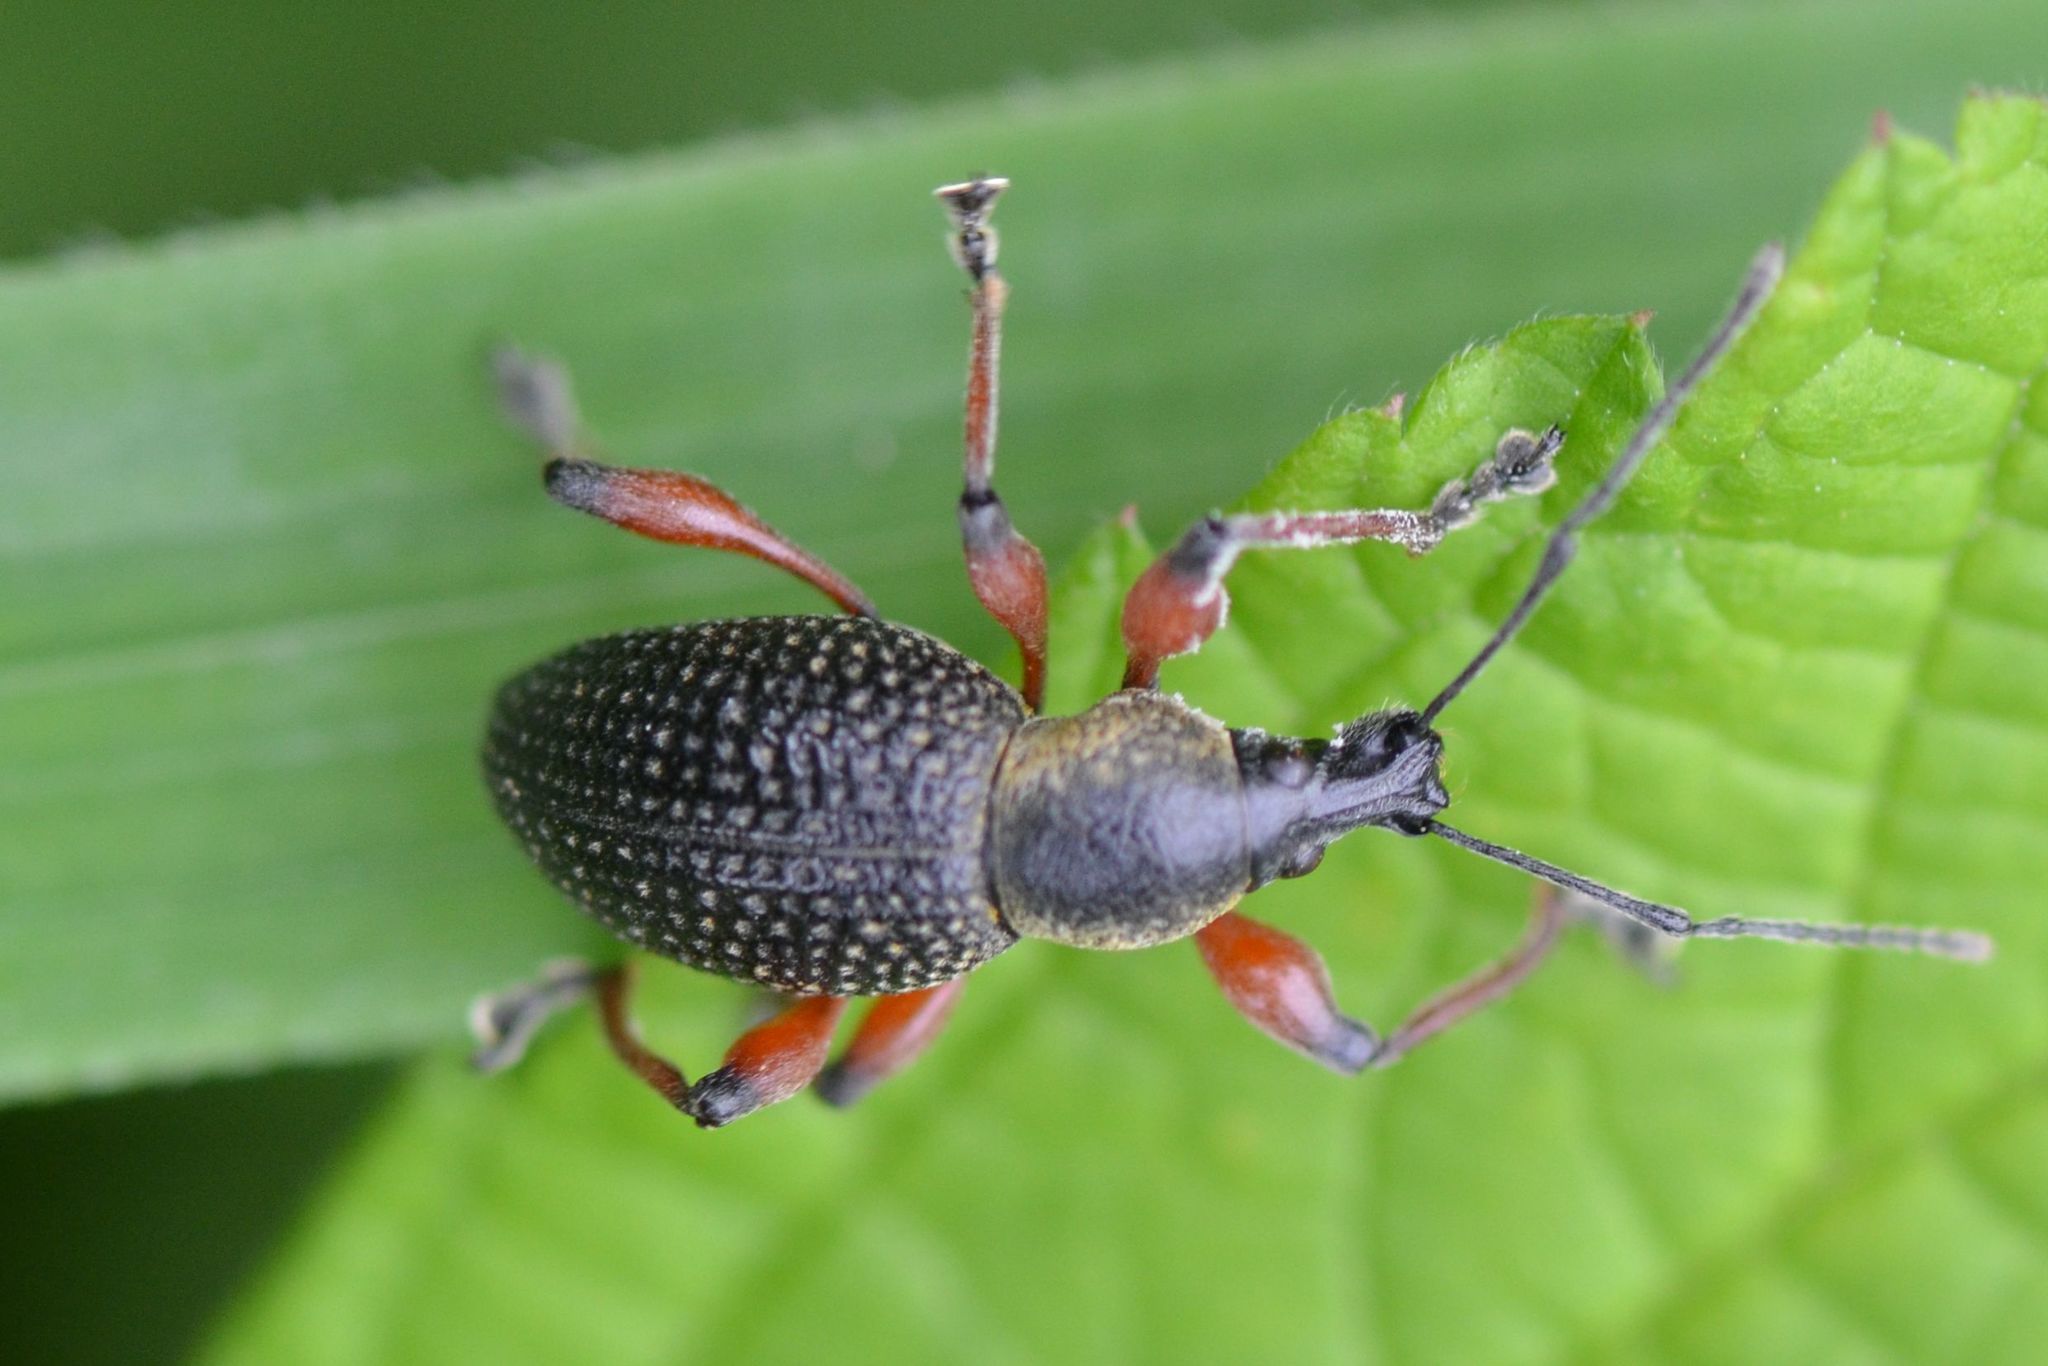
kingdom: Animalia
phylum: Arthropoda
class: Insecta
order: Coleoptera
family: Curculionidae
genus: Otiorhynchus
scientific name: Otiorhynchus coecus
